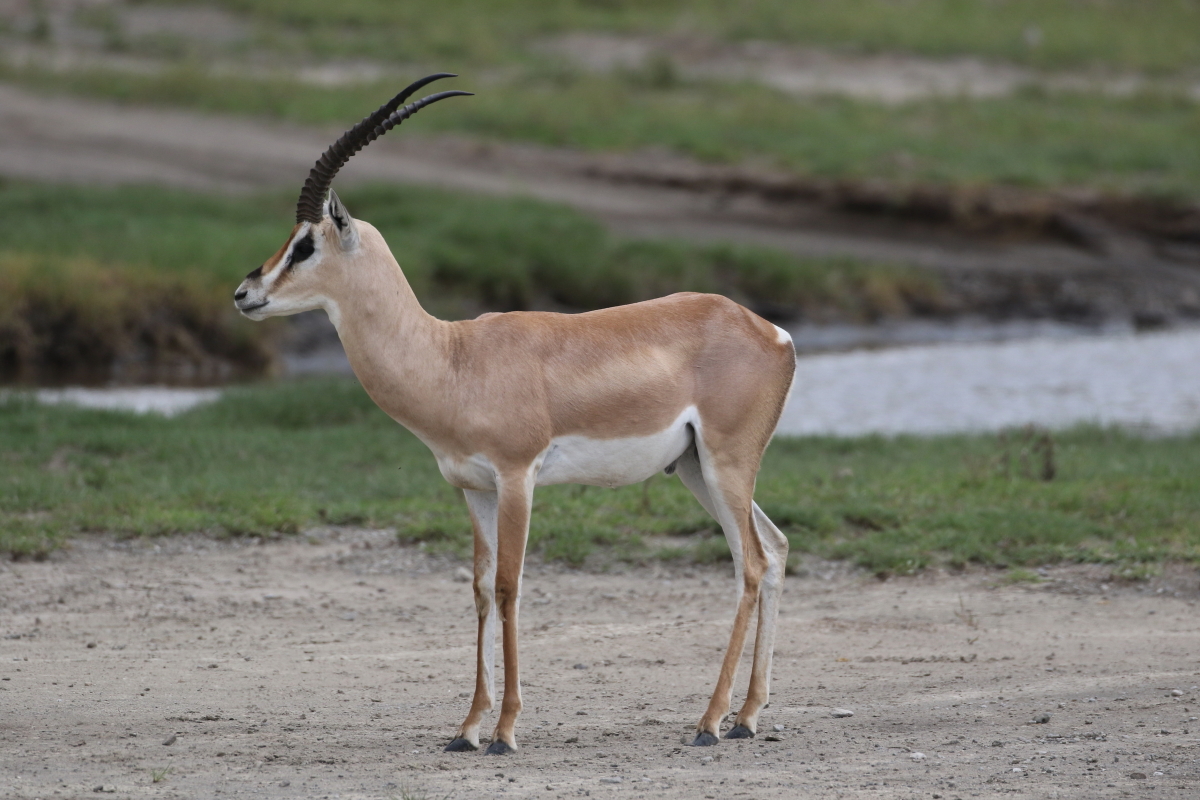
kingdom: Animalia
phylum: Chordata
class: Mammalia
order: Artiodactyla
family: Bovidae
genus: Nanger
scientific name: Nanger granti
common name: Grant's gazelle
